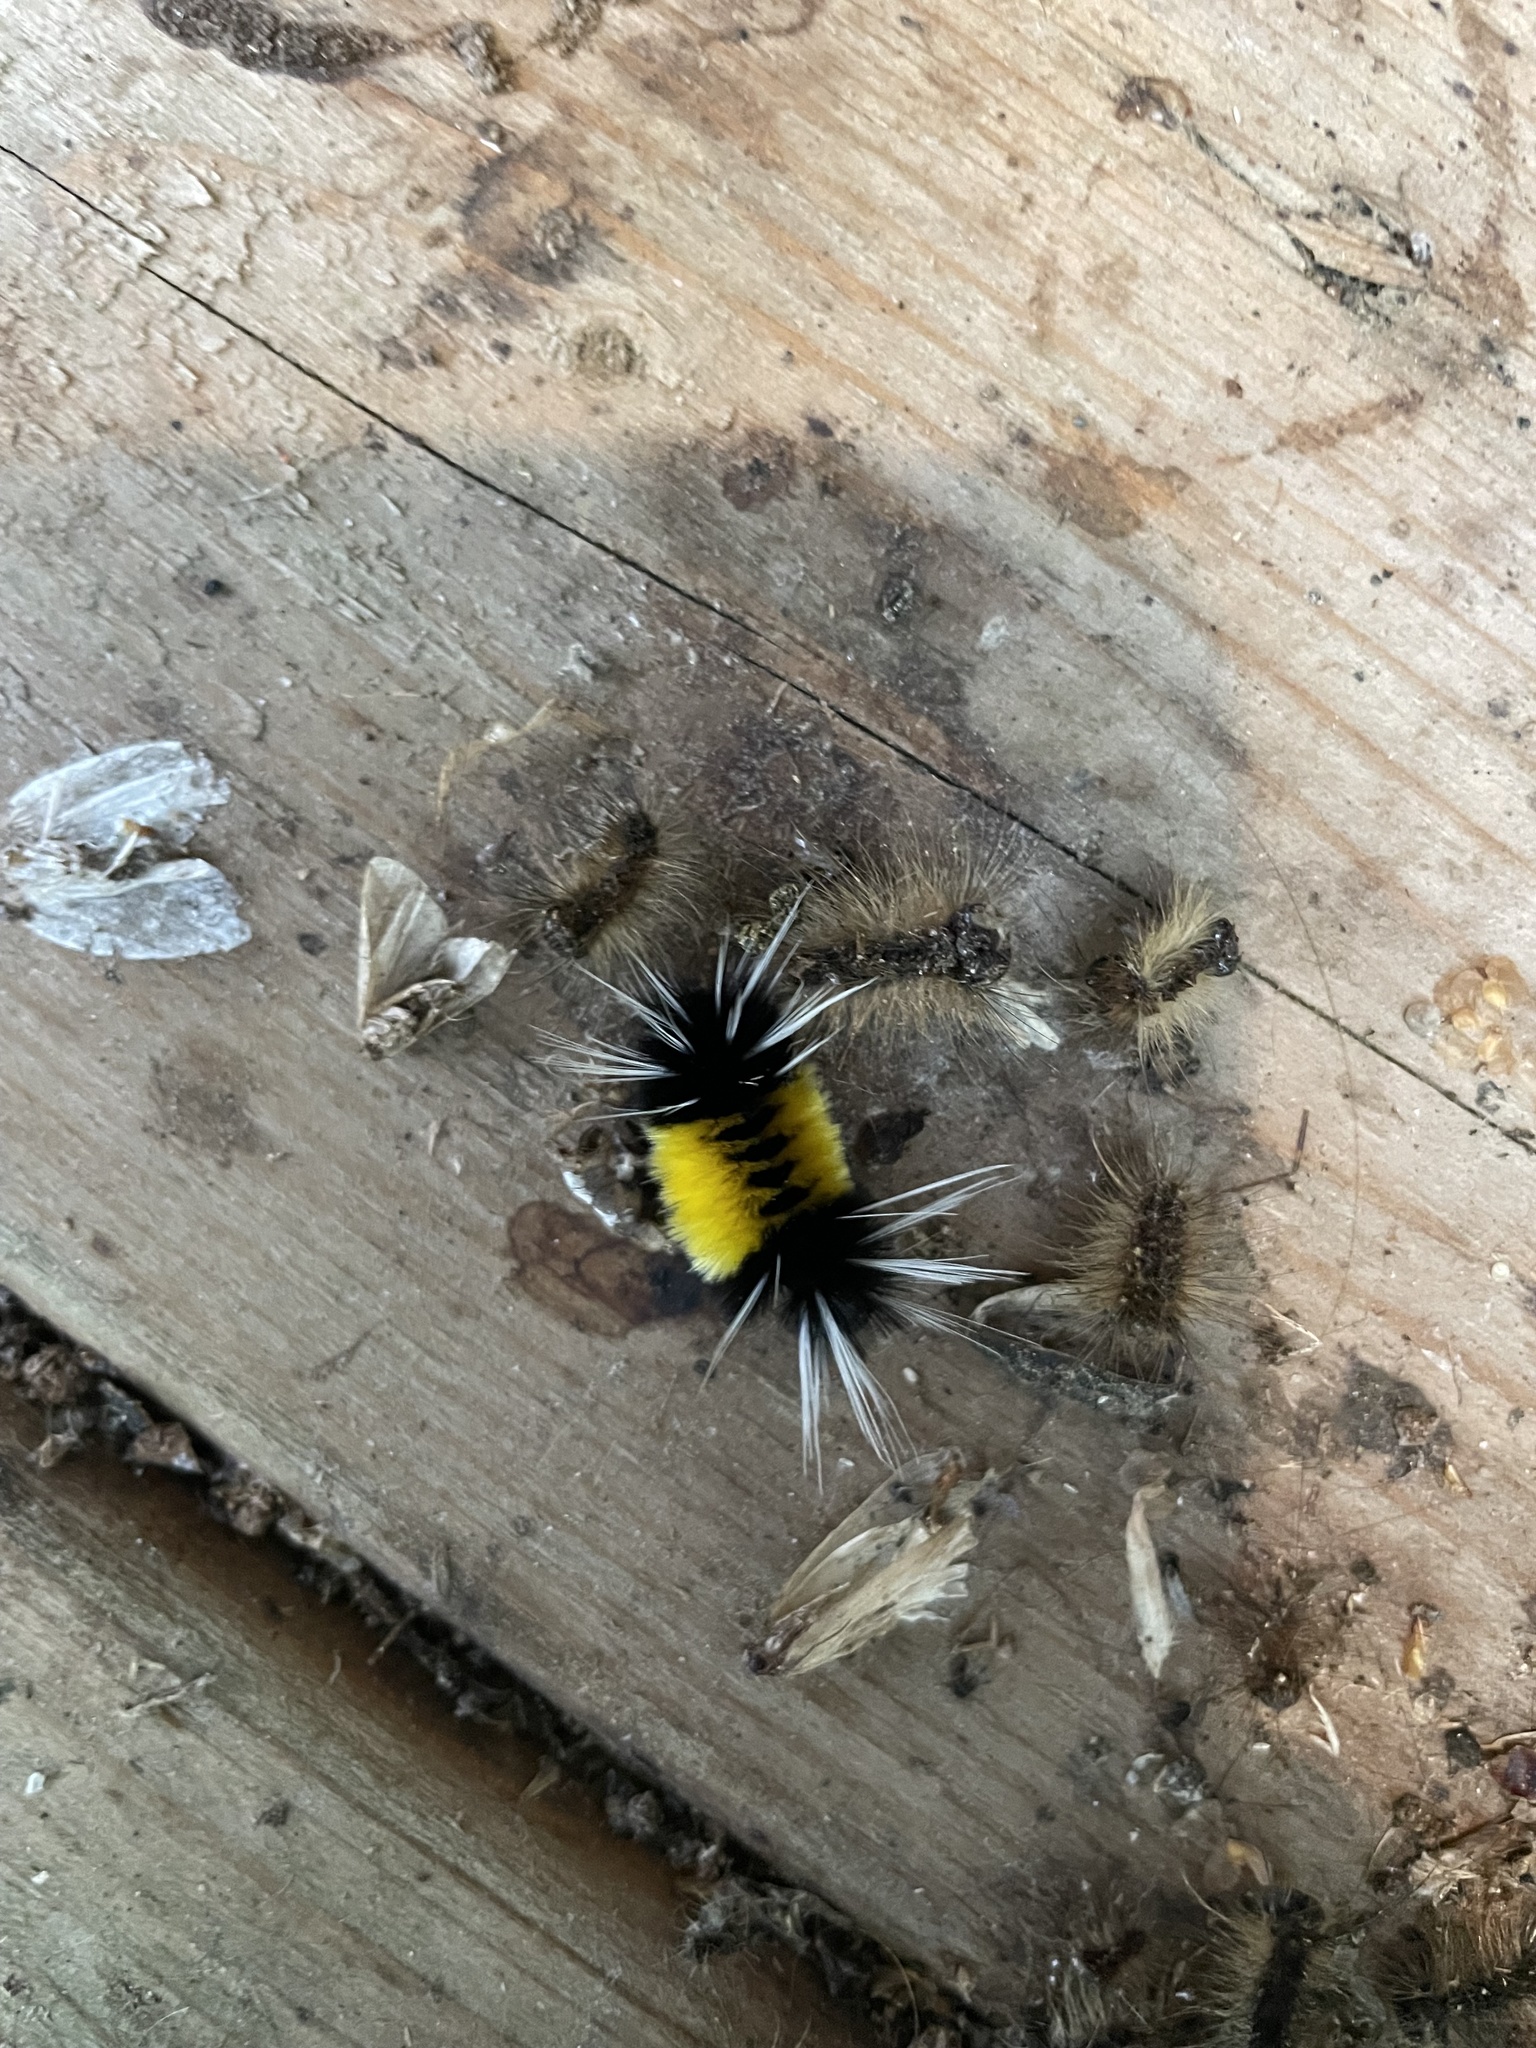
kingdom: Animalia
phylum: Arthropoda
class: Insecta
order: Lepidoptera
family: Erebidae
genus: Lophocampa
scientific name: Lophocampa maculata
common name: Spotted tussock moth
